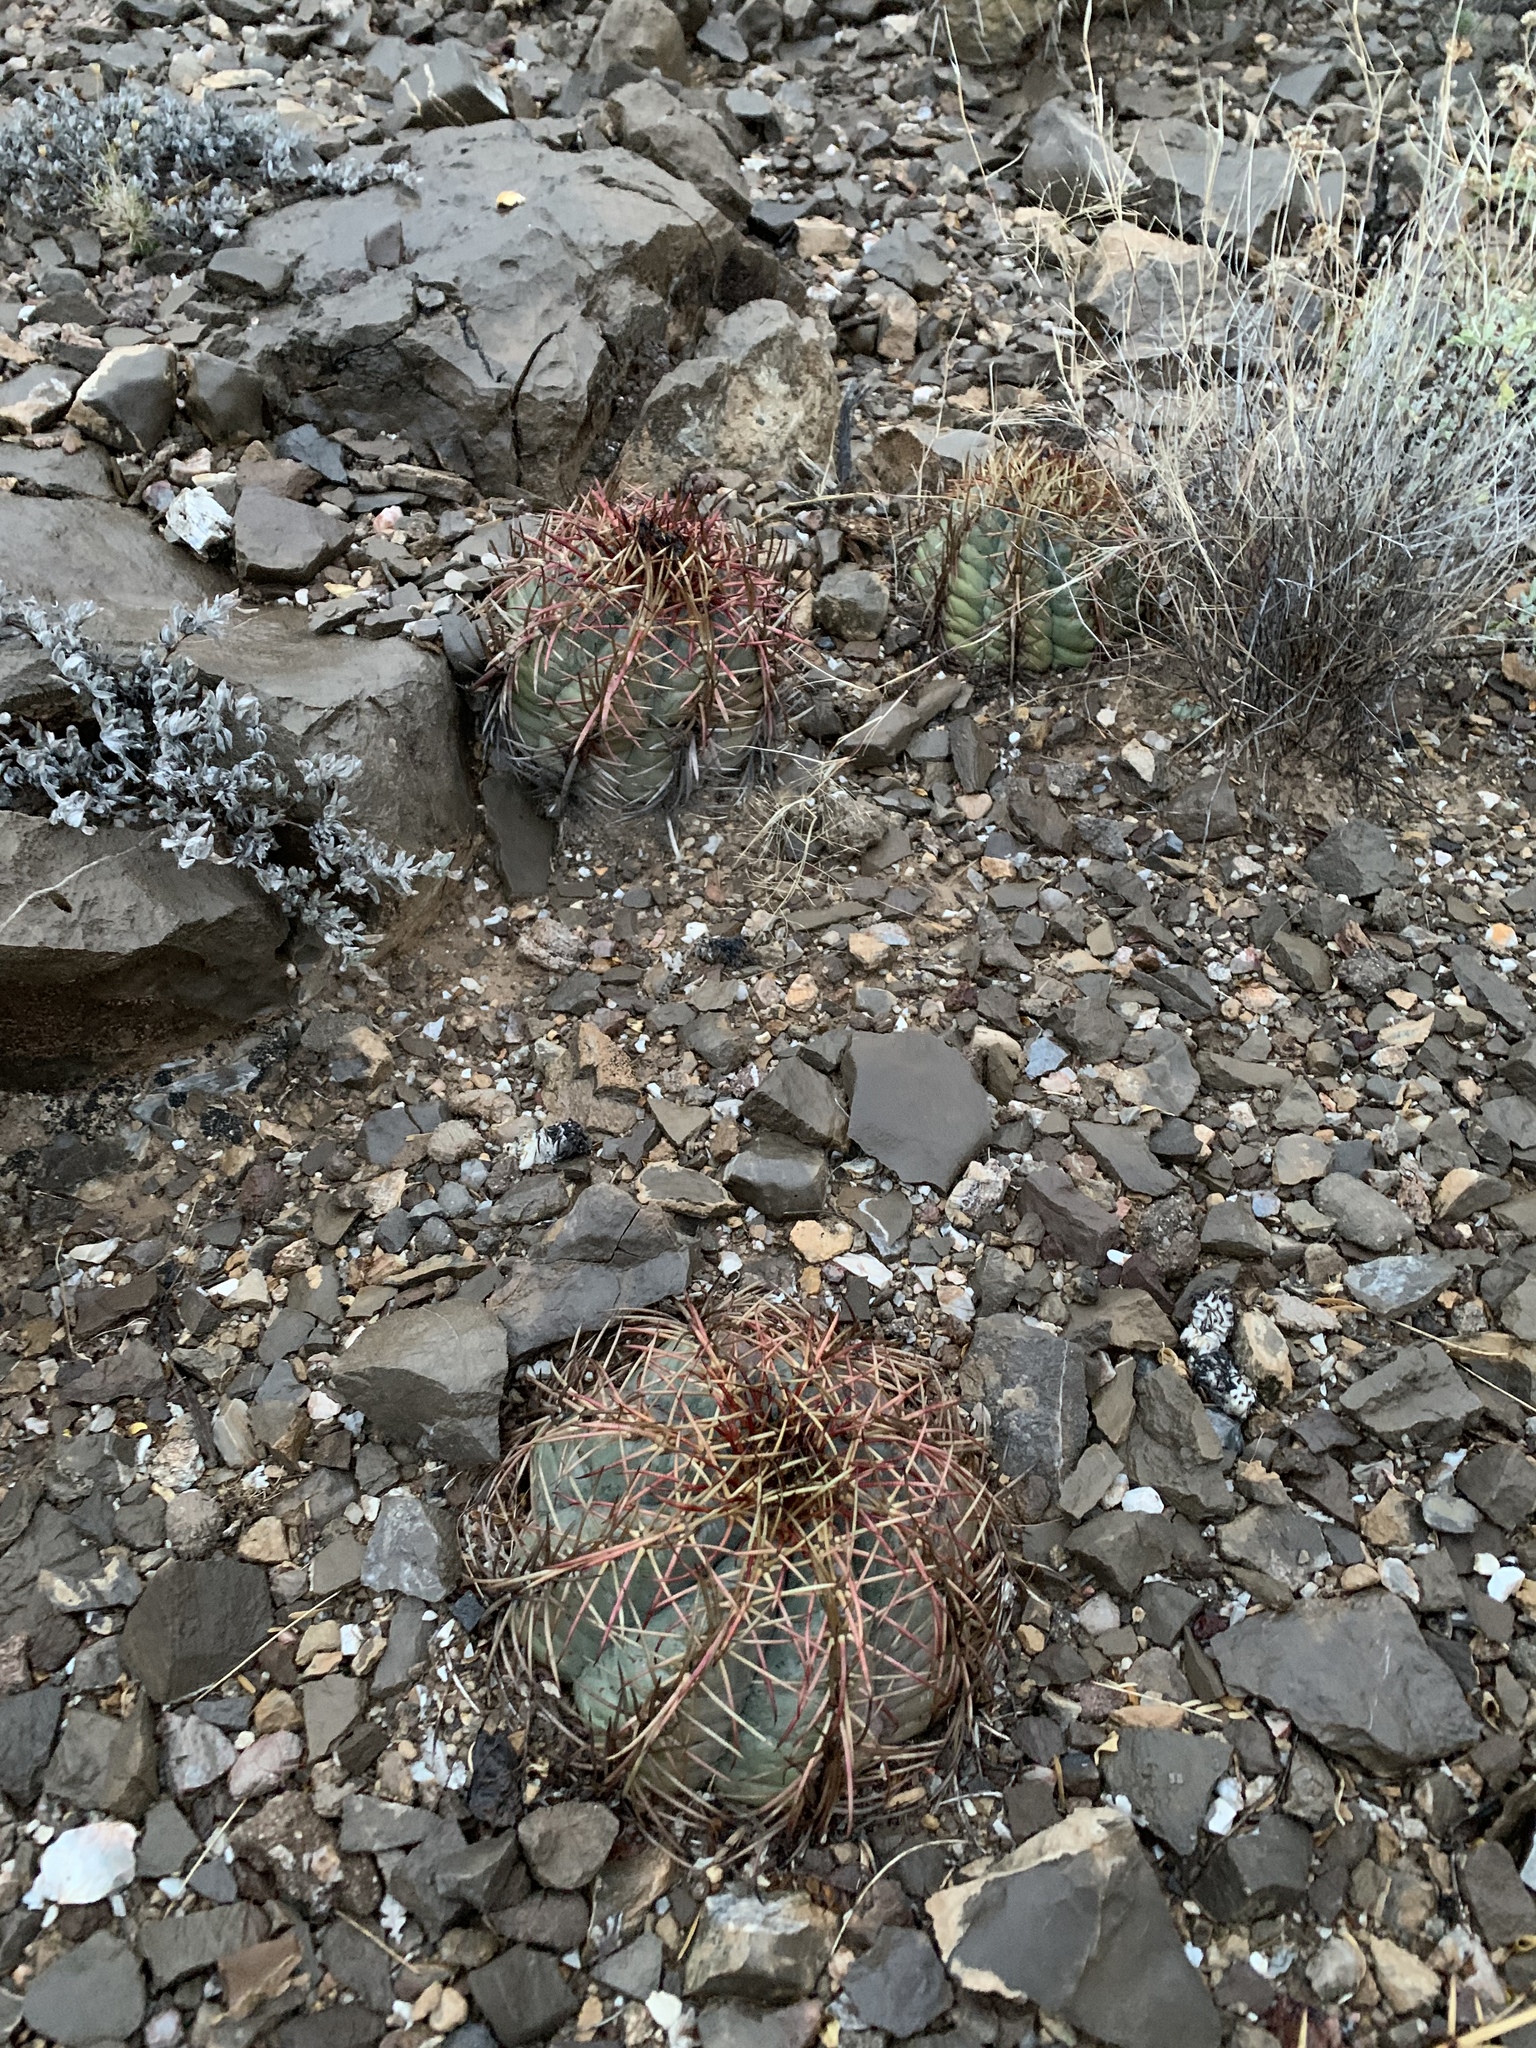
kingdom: Plantae
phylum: Tracheophyta
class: Magnoliopsida
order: Caryophyllales
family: Cactaceae
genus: Echinocactus
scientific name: Echinocactus horizonthalonius
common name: Devilshead
